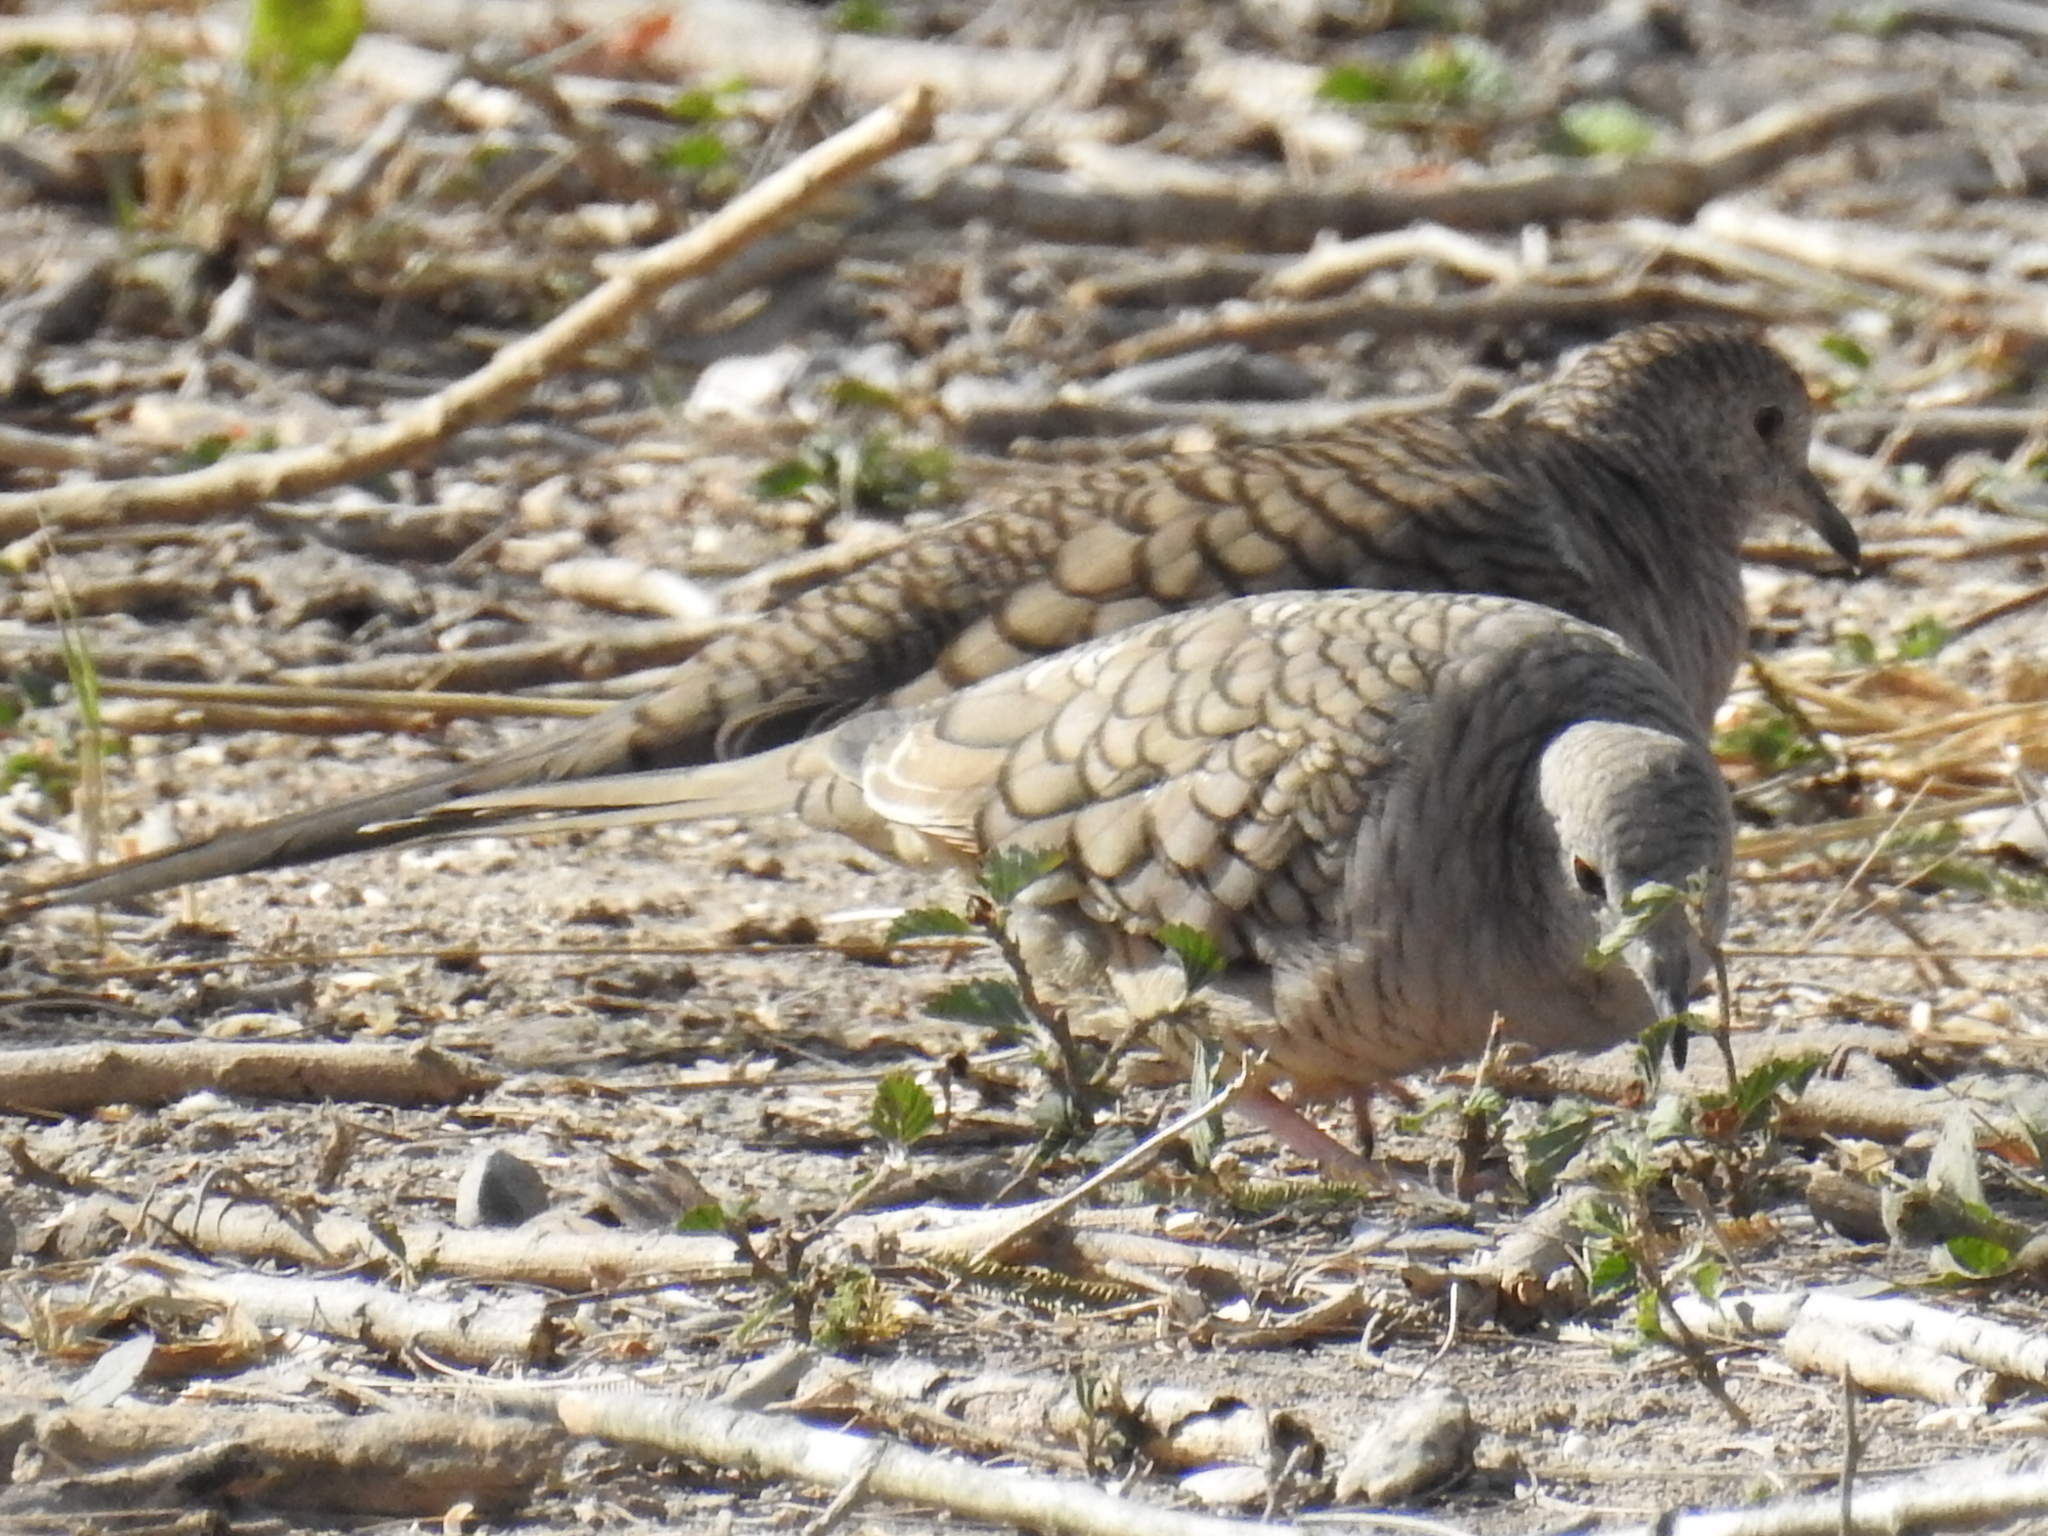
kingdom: Animalia
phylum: Chordata
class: Aves
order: Columbiformes
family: Columbidae
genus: Columbina
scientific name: Columbina inca
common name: Inca dove
